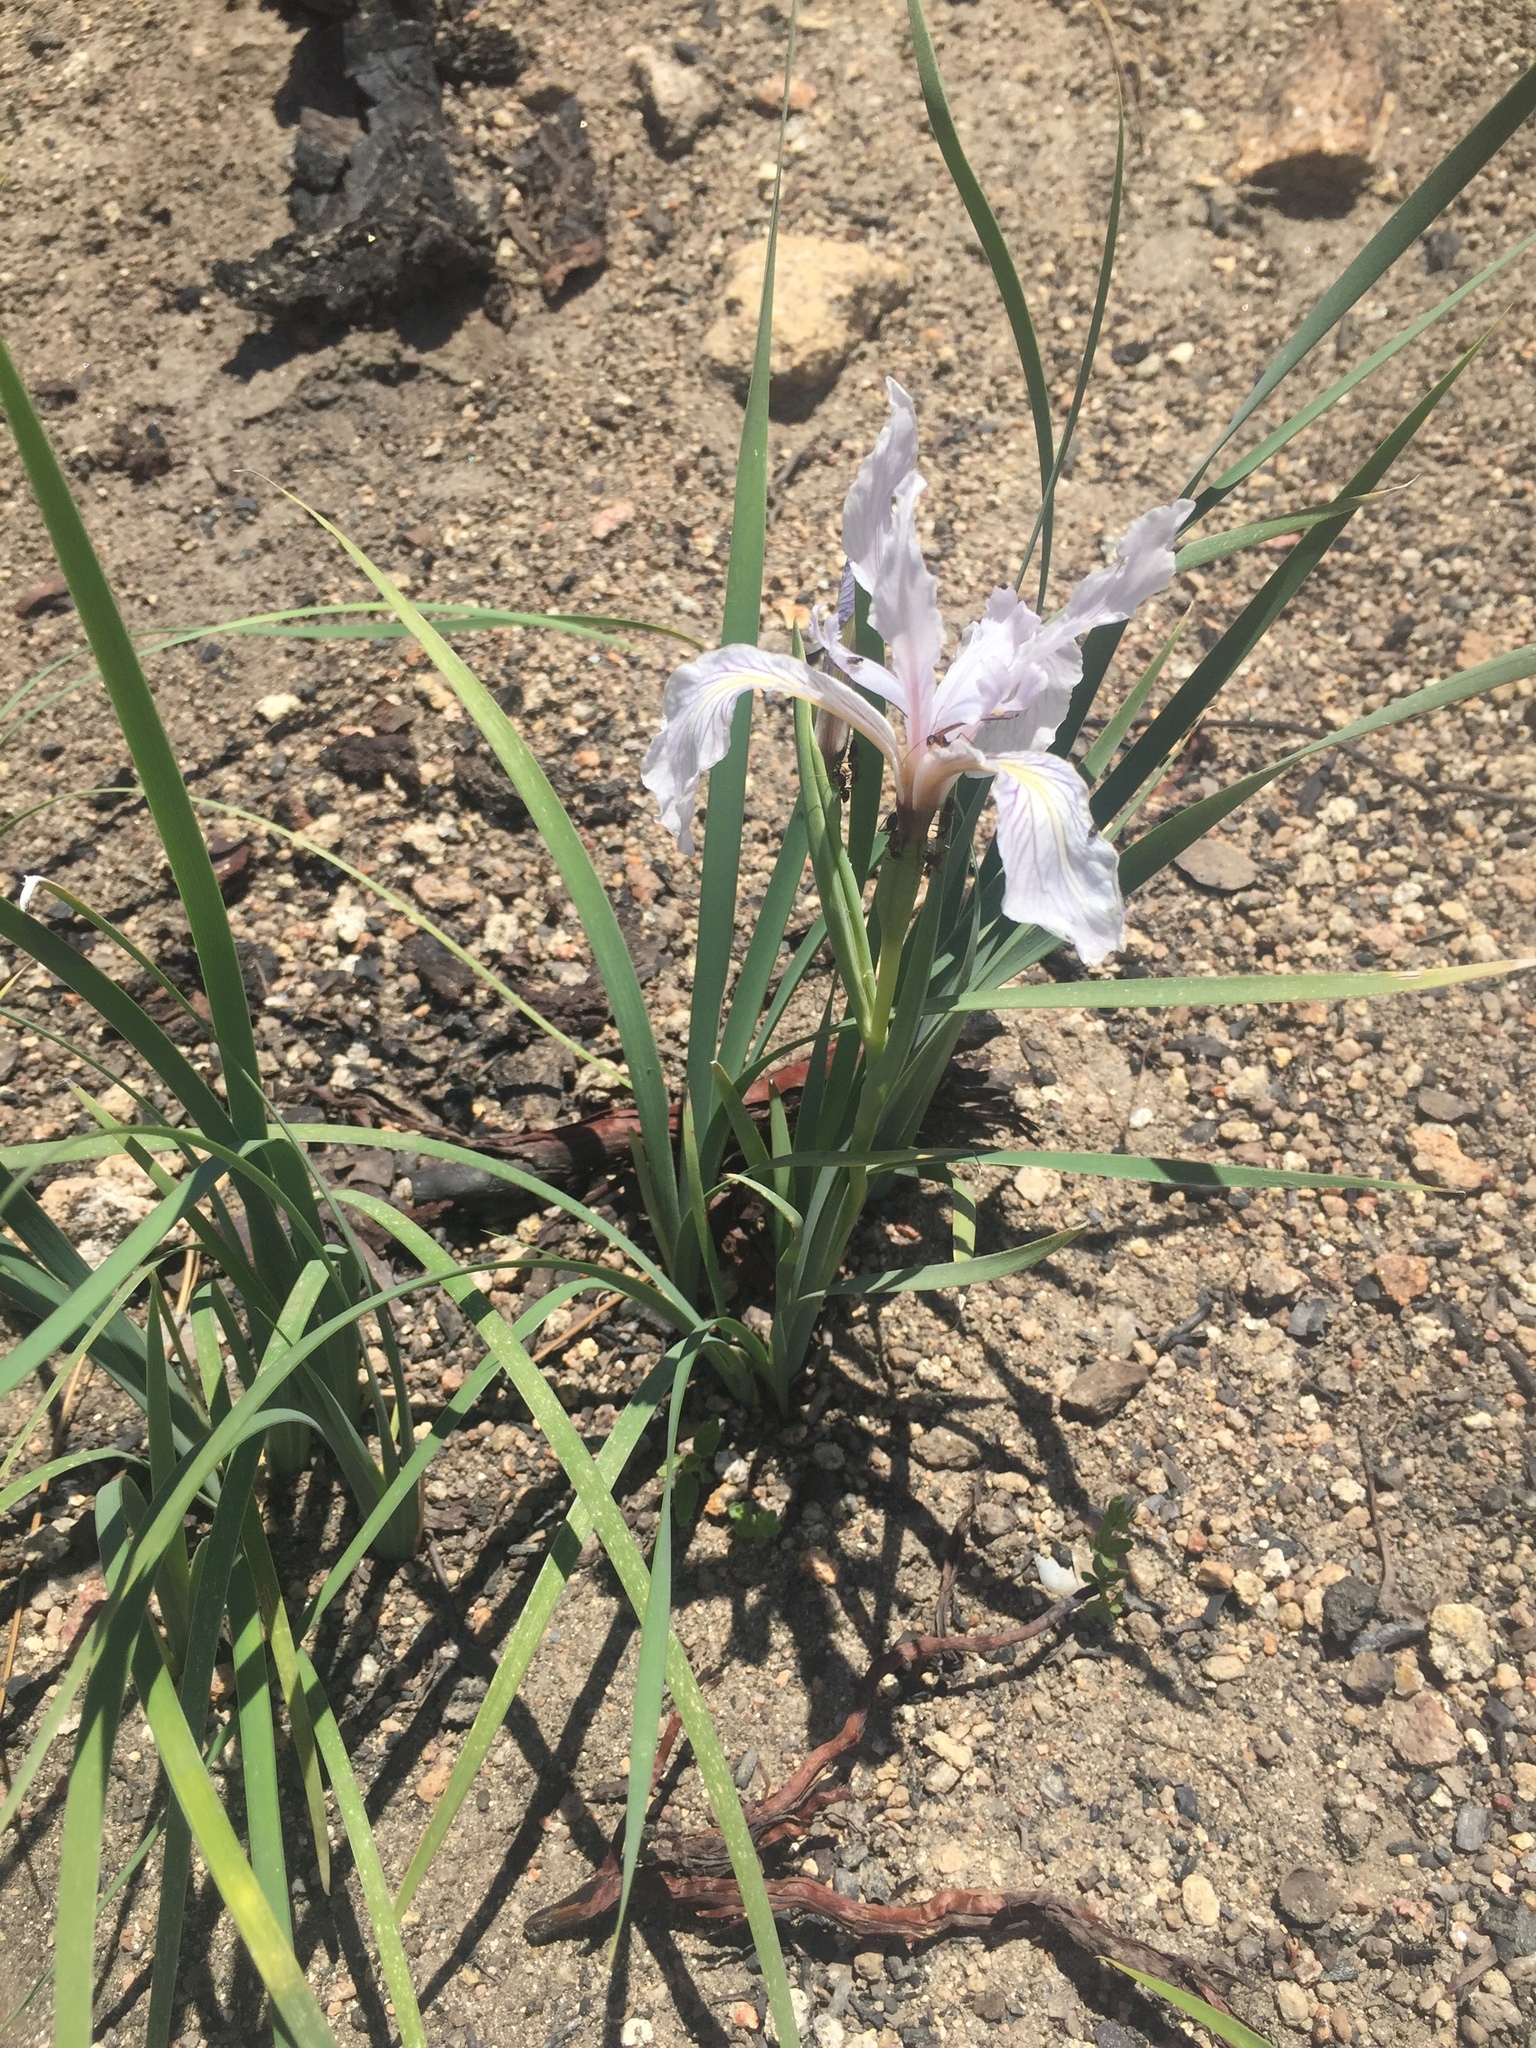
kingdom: Plantae
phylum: Tracheophyta
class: Liliopsida
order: Asparagales
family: Iridaceae
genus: Iris
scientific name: Iris hartwegii
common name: Sierra iris
